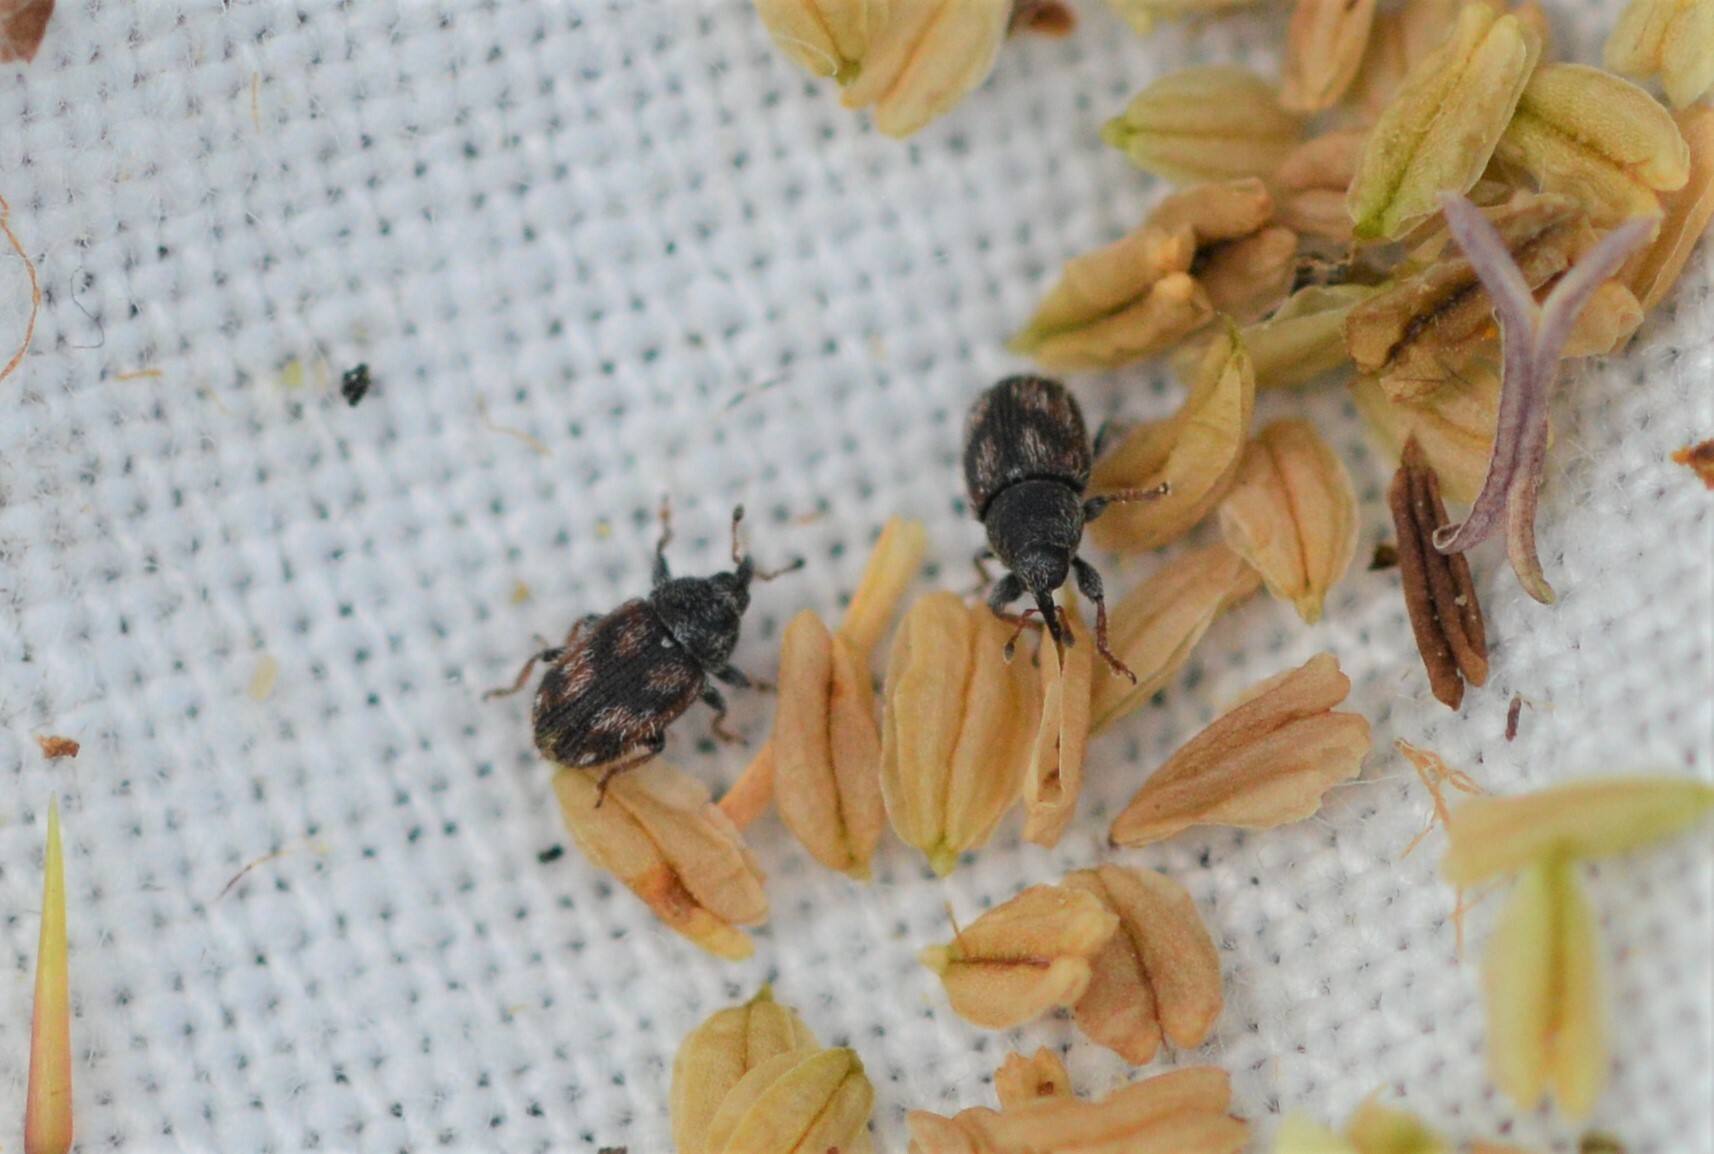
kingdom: Animalia
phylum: Arthropoda
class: Insecta
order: Coleoptera
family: Curculionidae
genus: Mecinus
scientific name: Mecinus labilis
